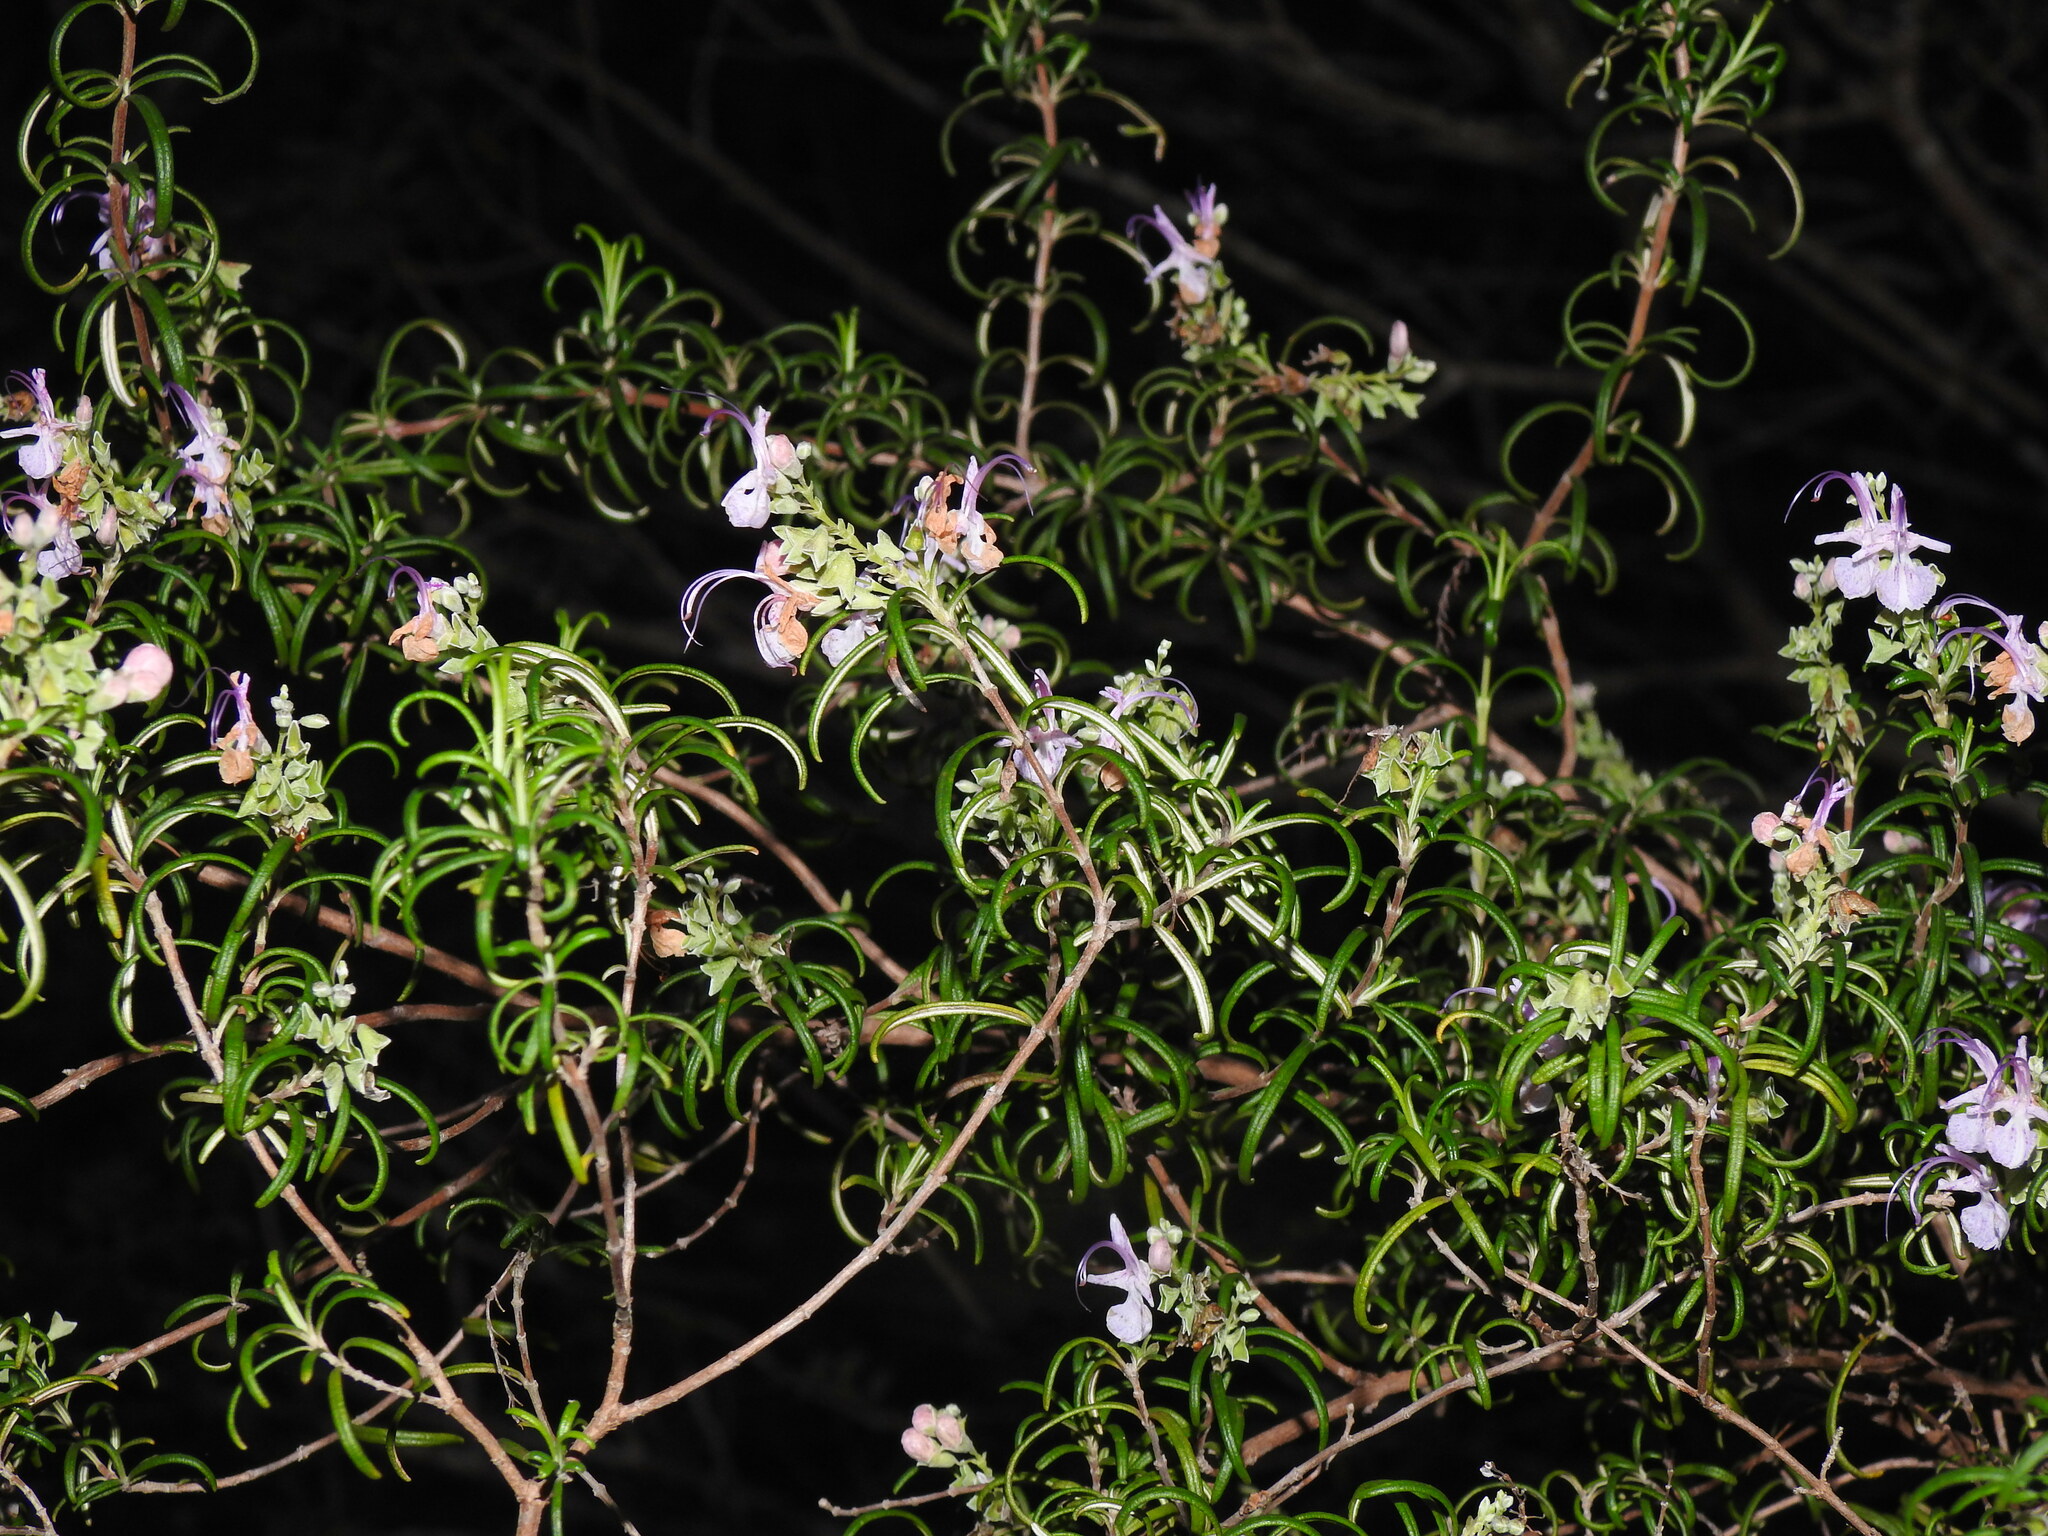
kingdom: Plantae
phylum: Tracheophyta
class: Magnoliopsida
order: Lamiales
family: Lamiaceae
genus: Salvia
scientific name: Salvia rosmarinus
